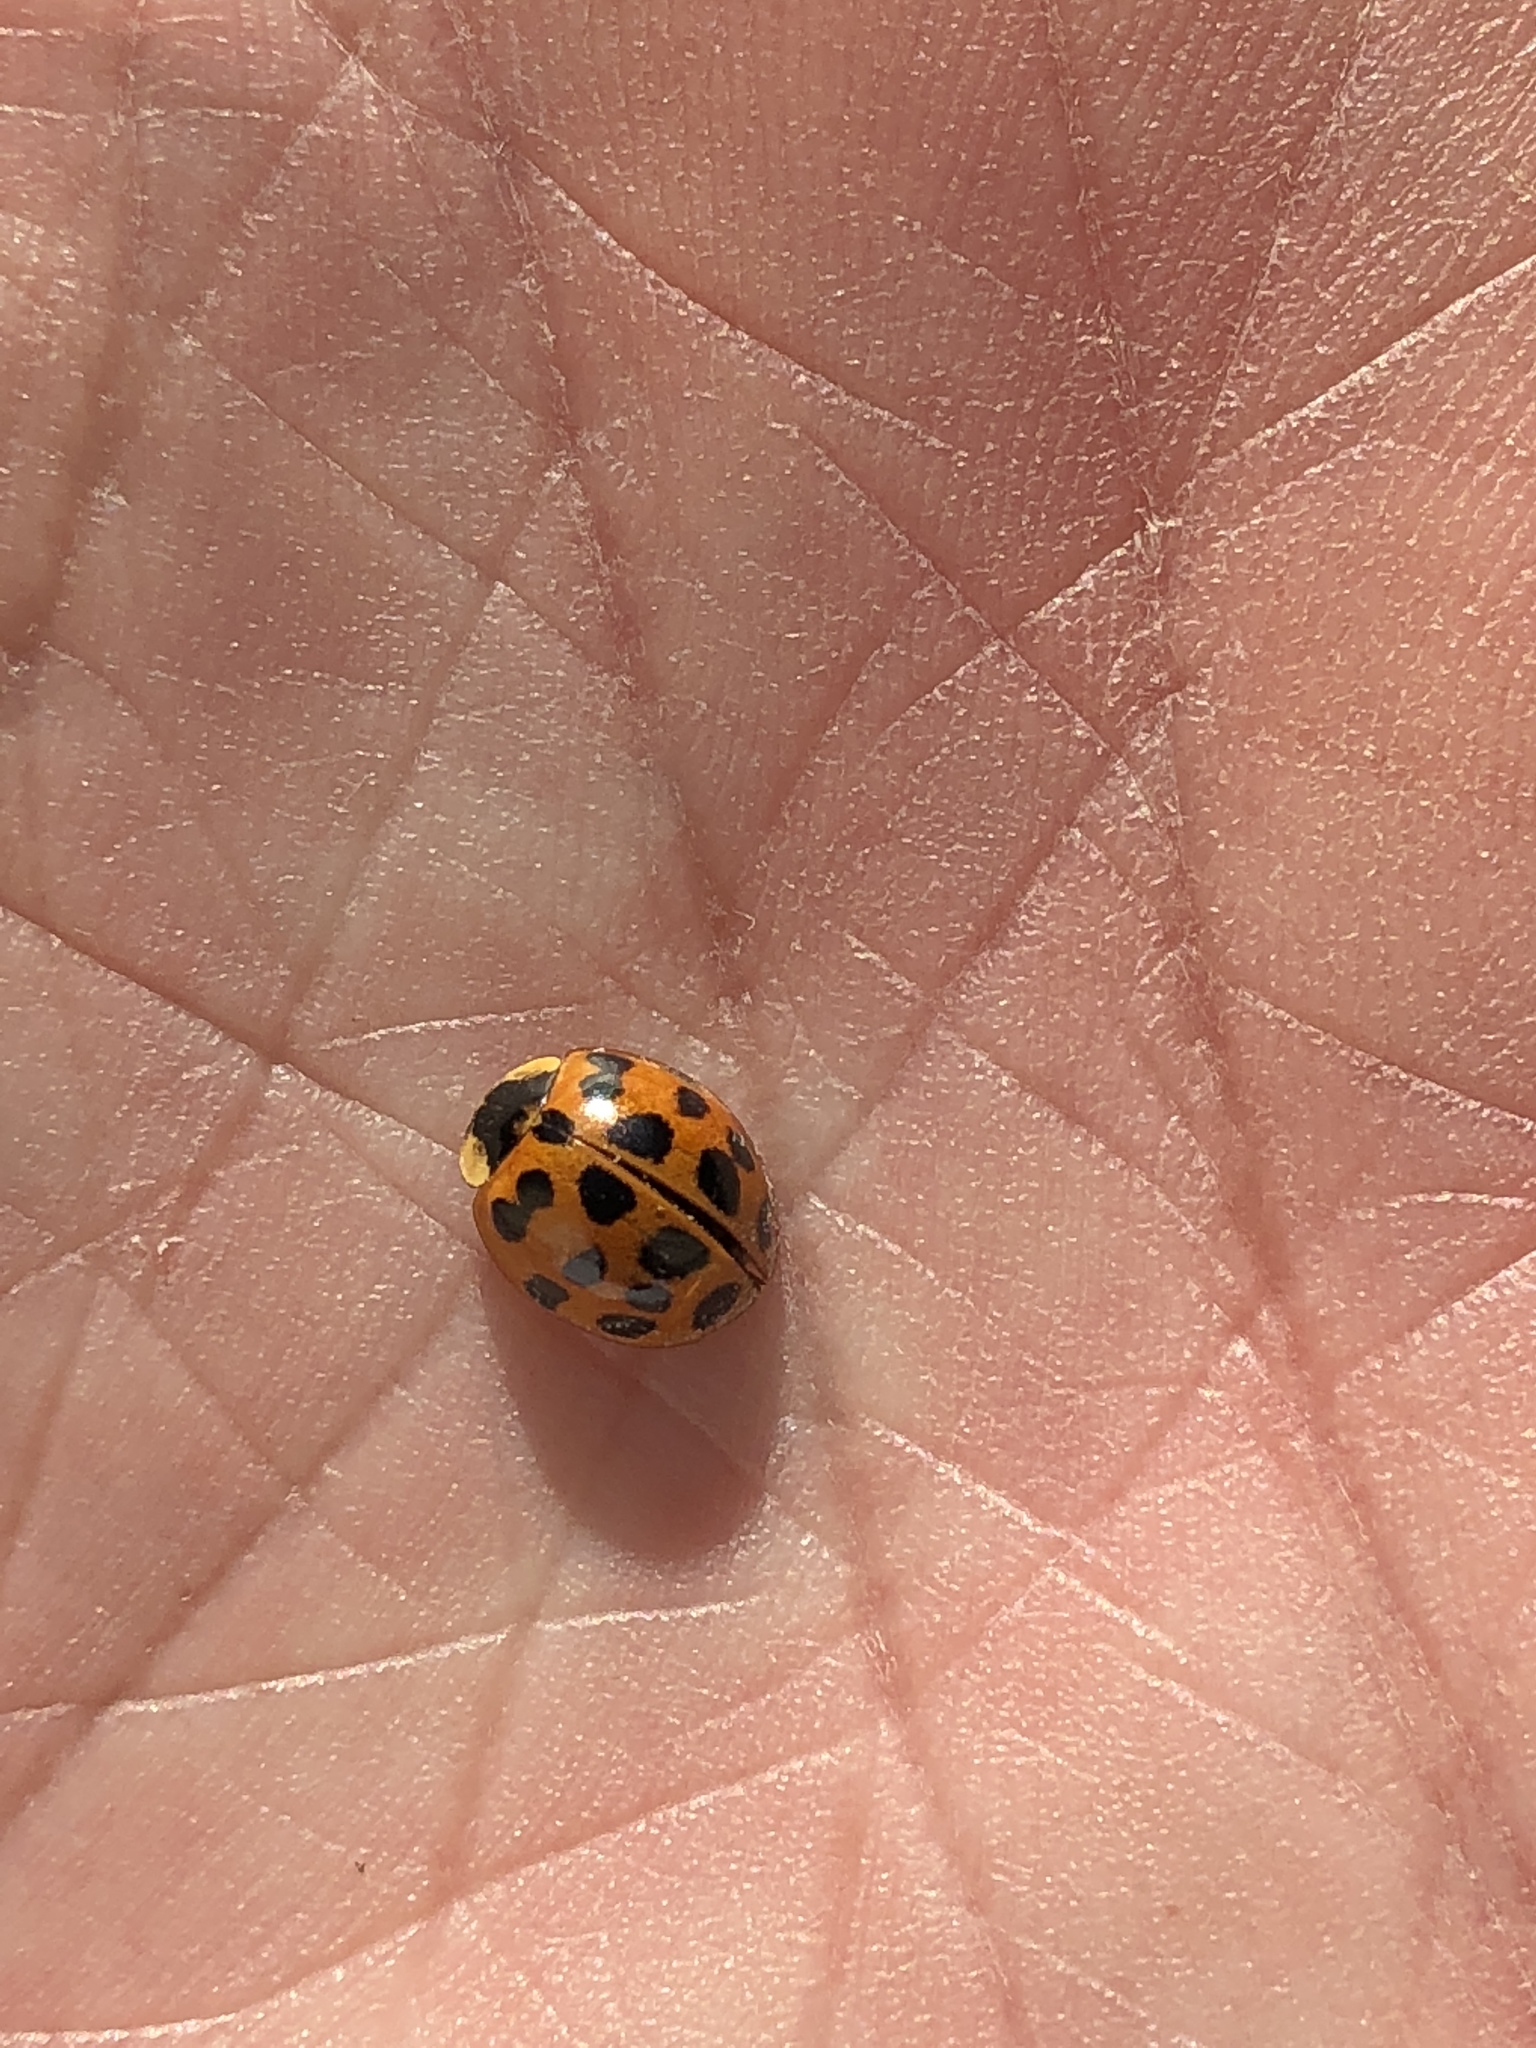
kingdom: Animalia
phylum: Arthropoda
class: Insecta
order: Coleoptera
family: Coccinellidae
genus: Harmonia
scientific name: Harmonia axyridis
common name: Harlequin ladybird
